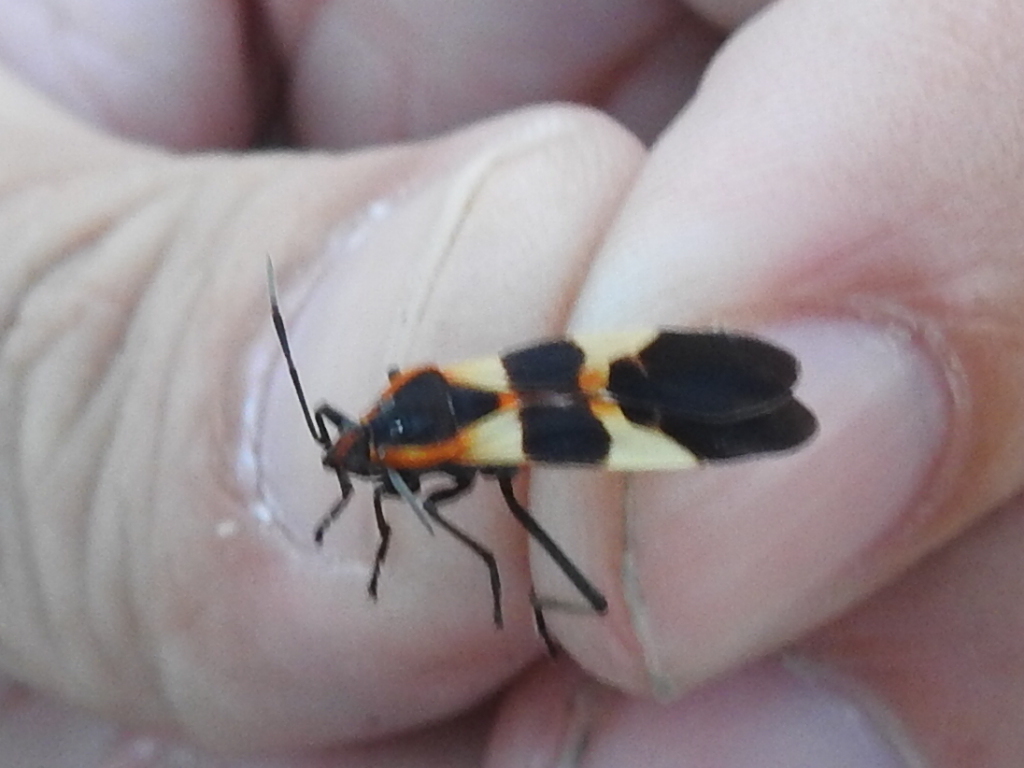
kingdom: Animalia
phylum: Arthropoda
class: Insecta
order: Hemiptera
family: Lygaeidae
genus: Oncopeltus
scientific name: Oncopeltus fasciatus
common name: Large milkweed bug
